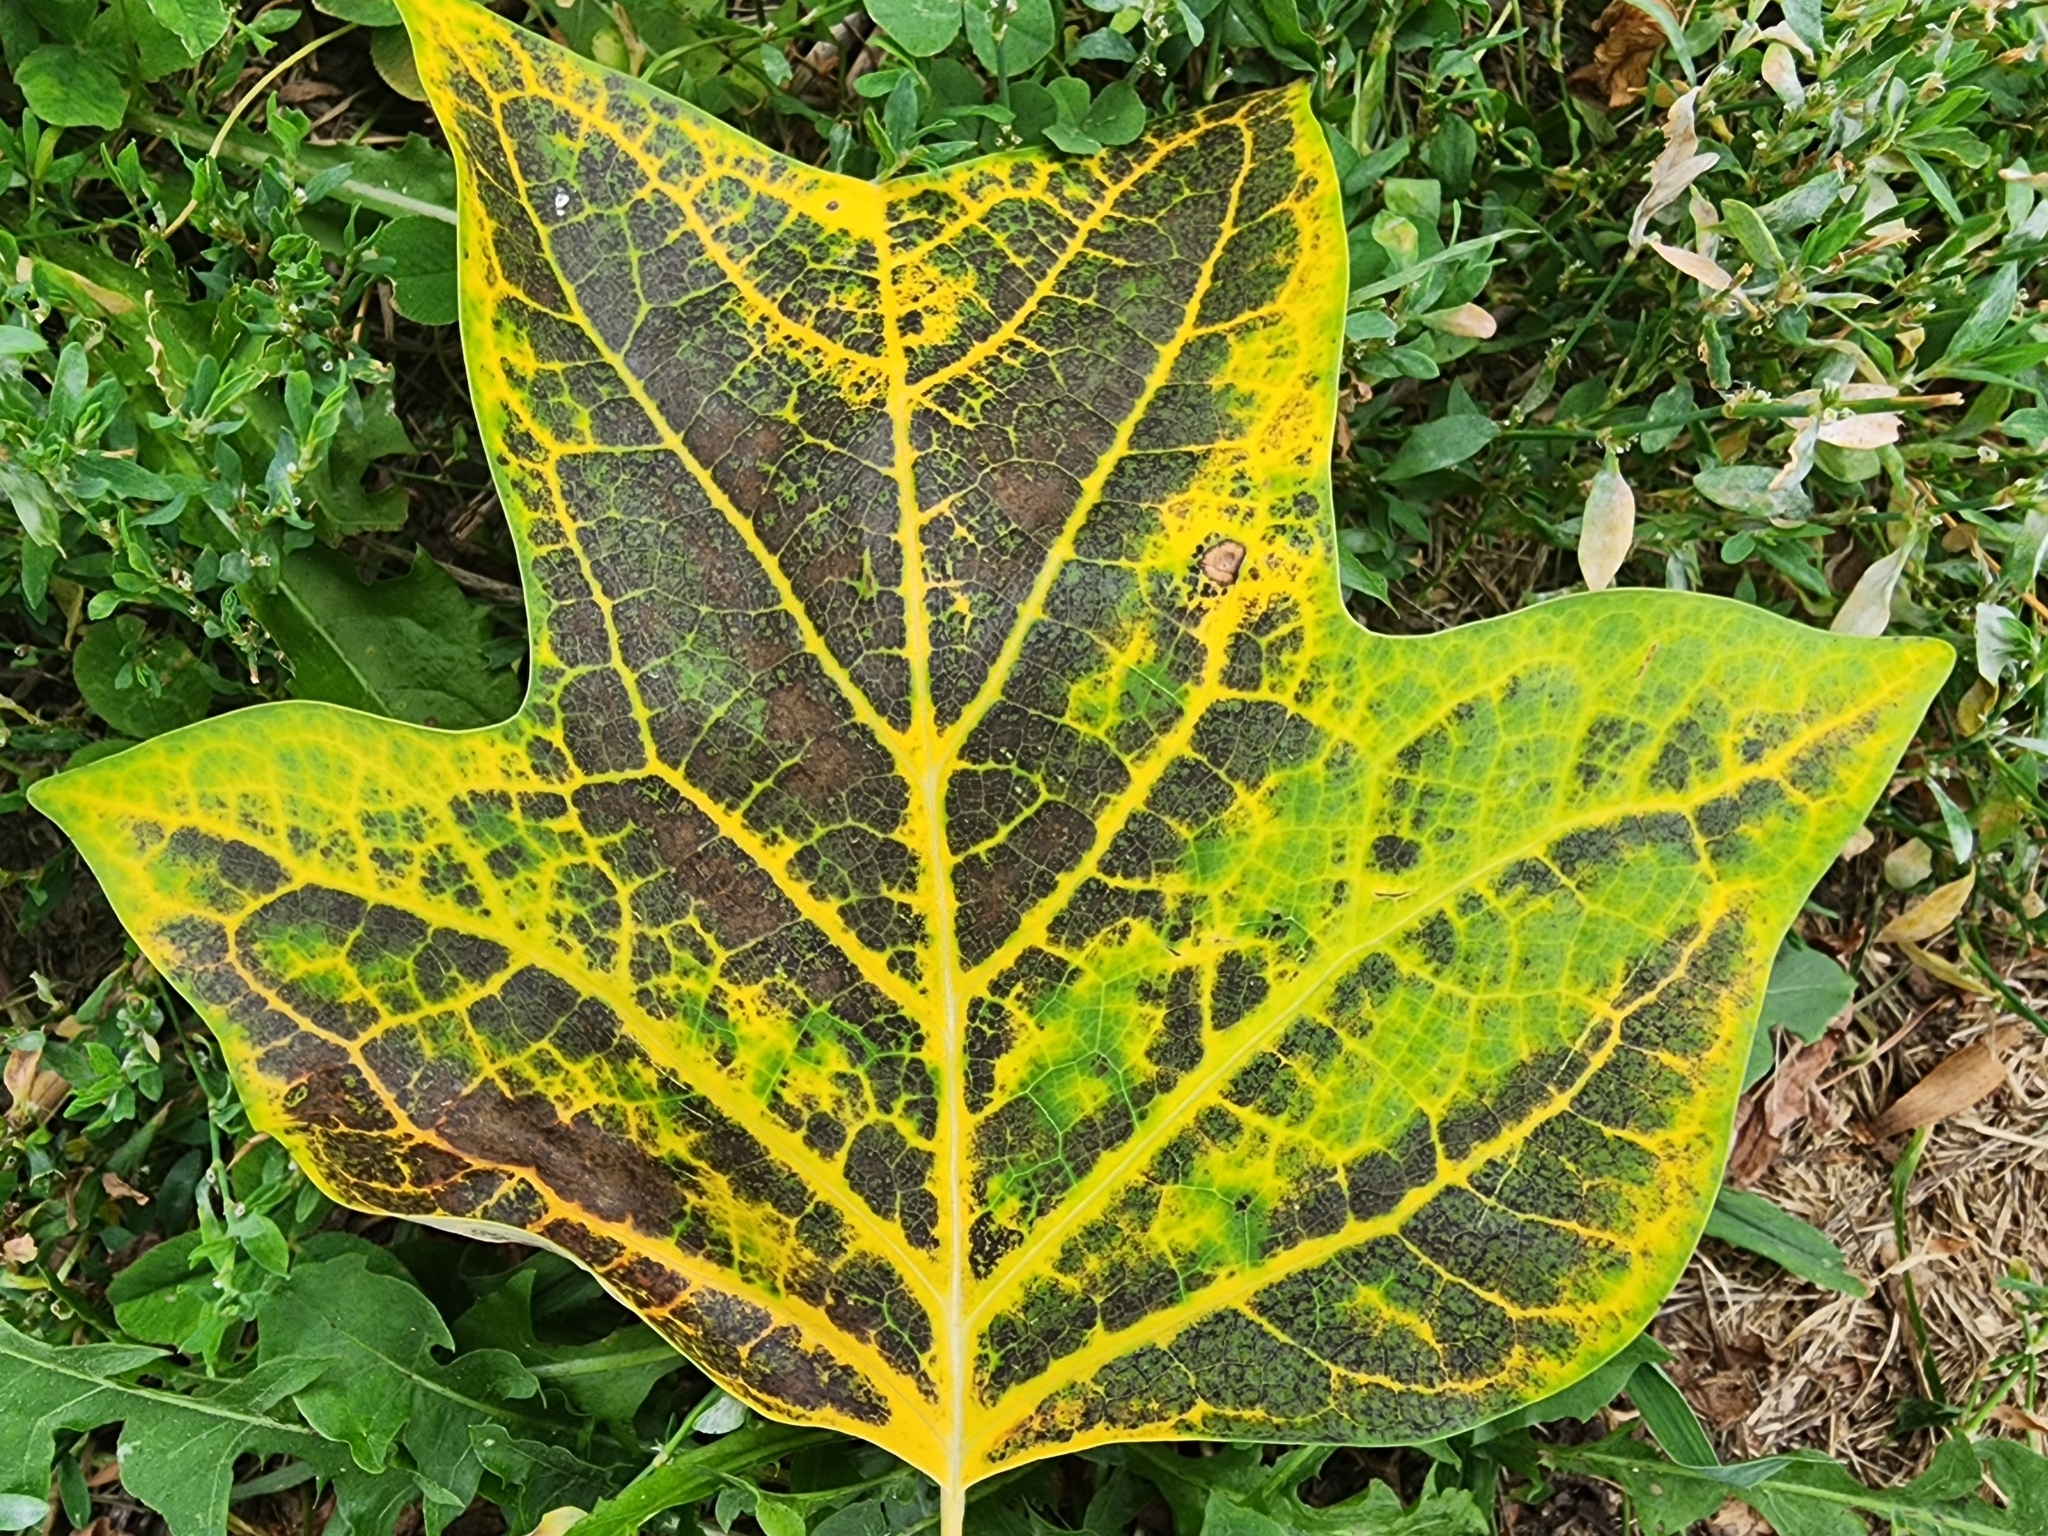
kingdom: Plantae
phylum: Tracheophyta
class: Magnoliopsida
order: Magnoliales
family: Magnoliaceae
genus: Liriodendron
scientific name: Liriodendron tulipifera
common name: Tulip tree
